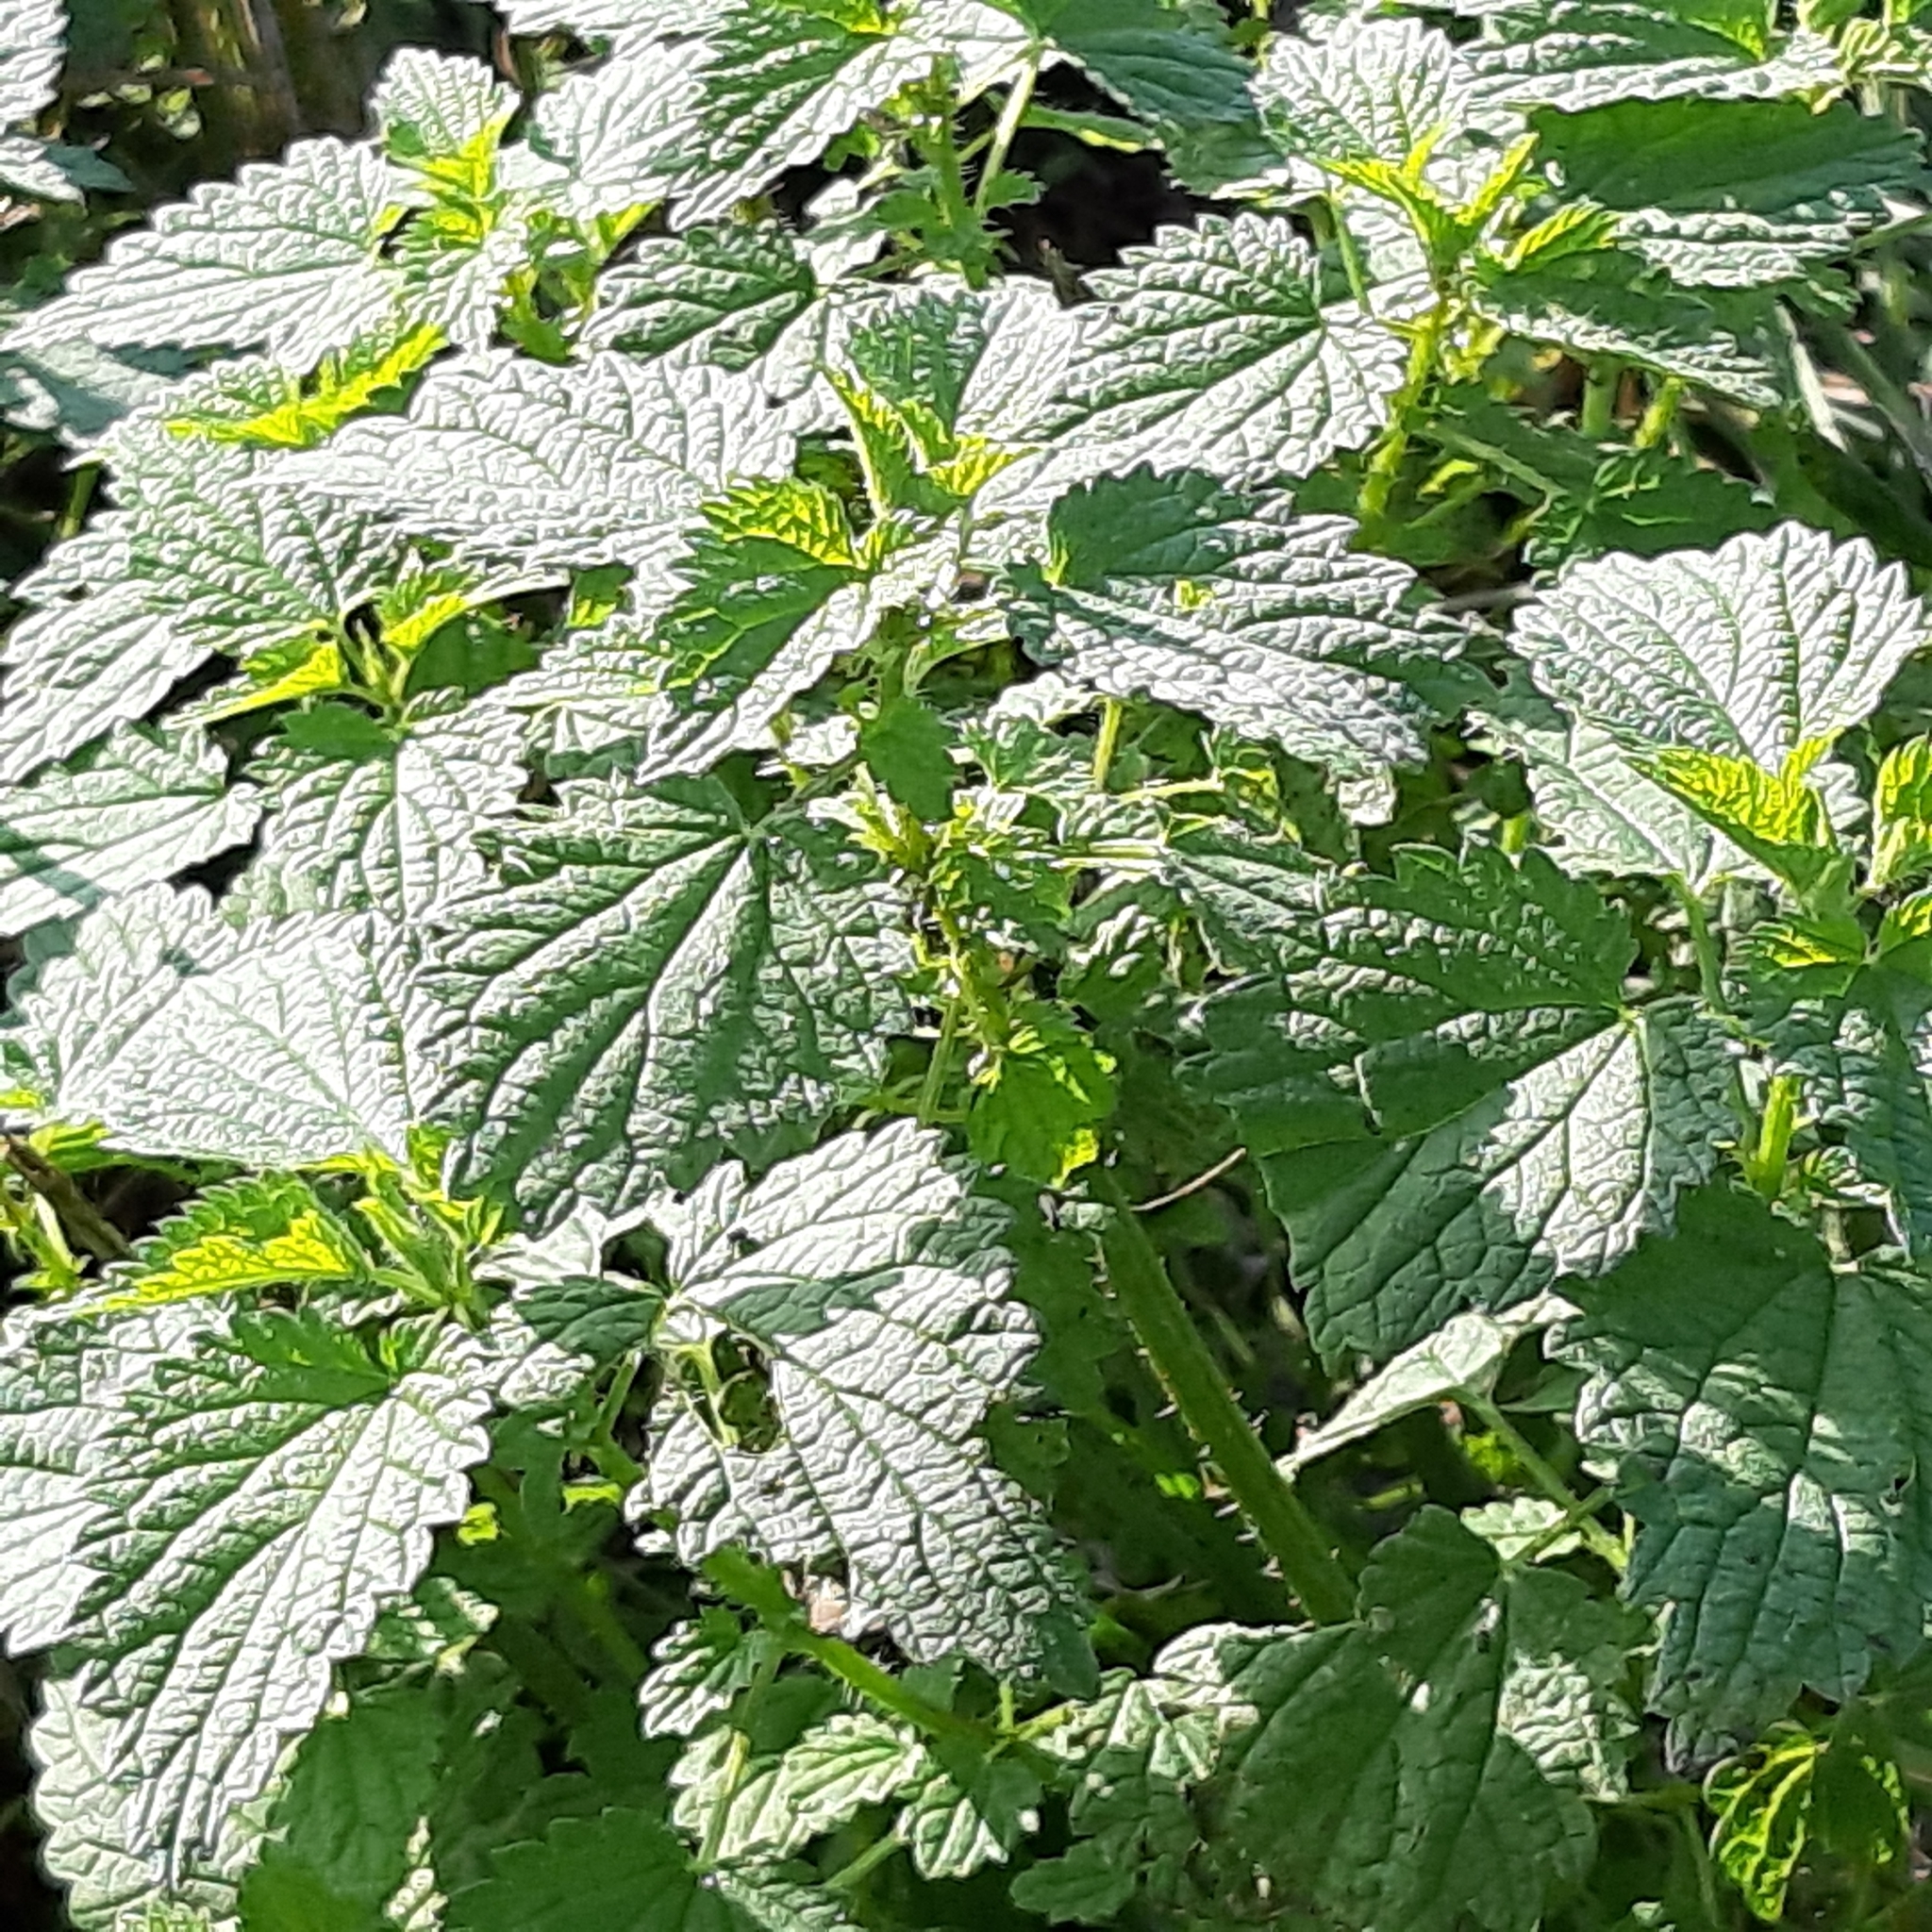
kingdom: Plantae
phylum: Tracheophyta
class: Magnoliopsida
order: Rosales
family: Urticaceae
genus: Urtica
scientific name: Urtica dioica
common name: Common nettle
